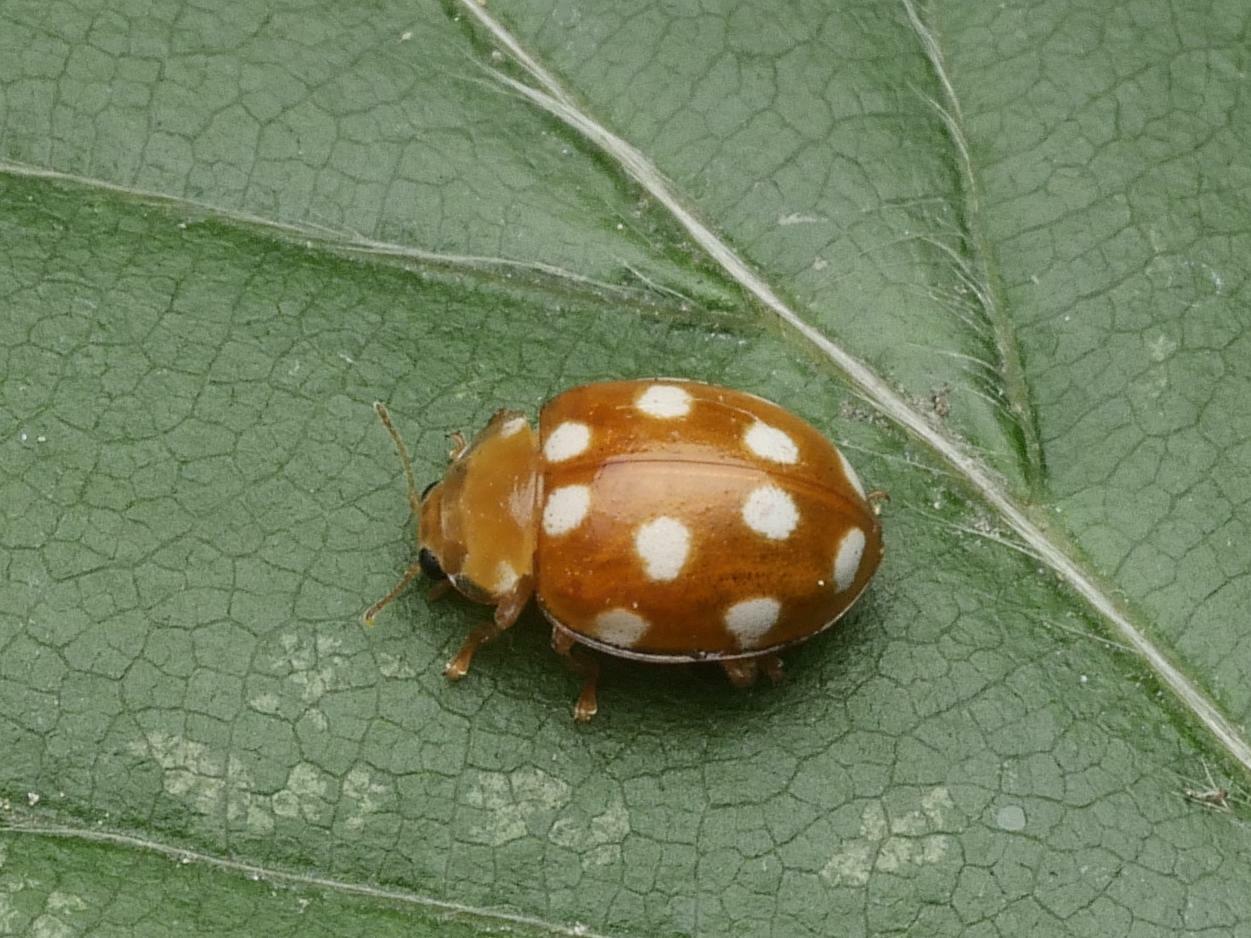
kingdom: Animalia
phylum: Arthropoda
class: Insecta
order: Coleoptera
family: Coccinellidae
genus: Vibidia
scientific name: Vibidia duodecimguttata
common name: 12-spot ladybird
